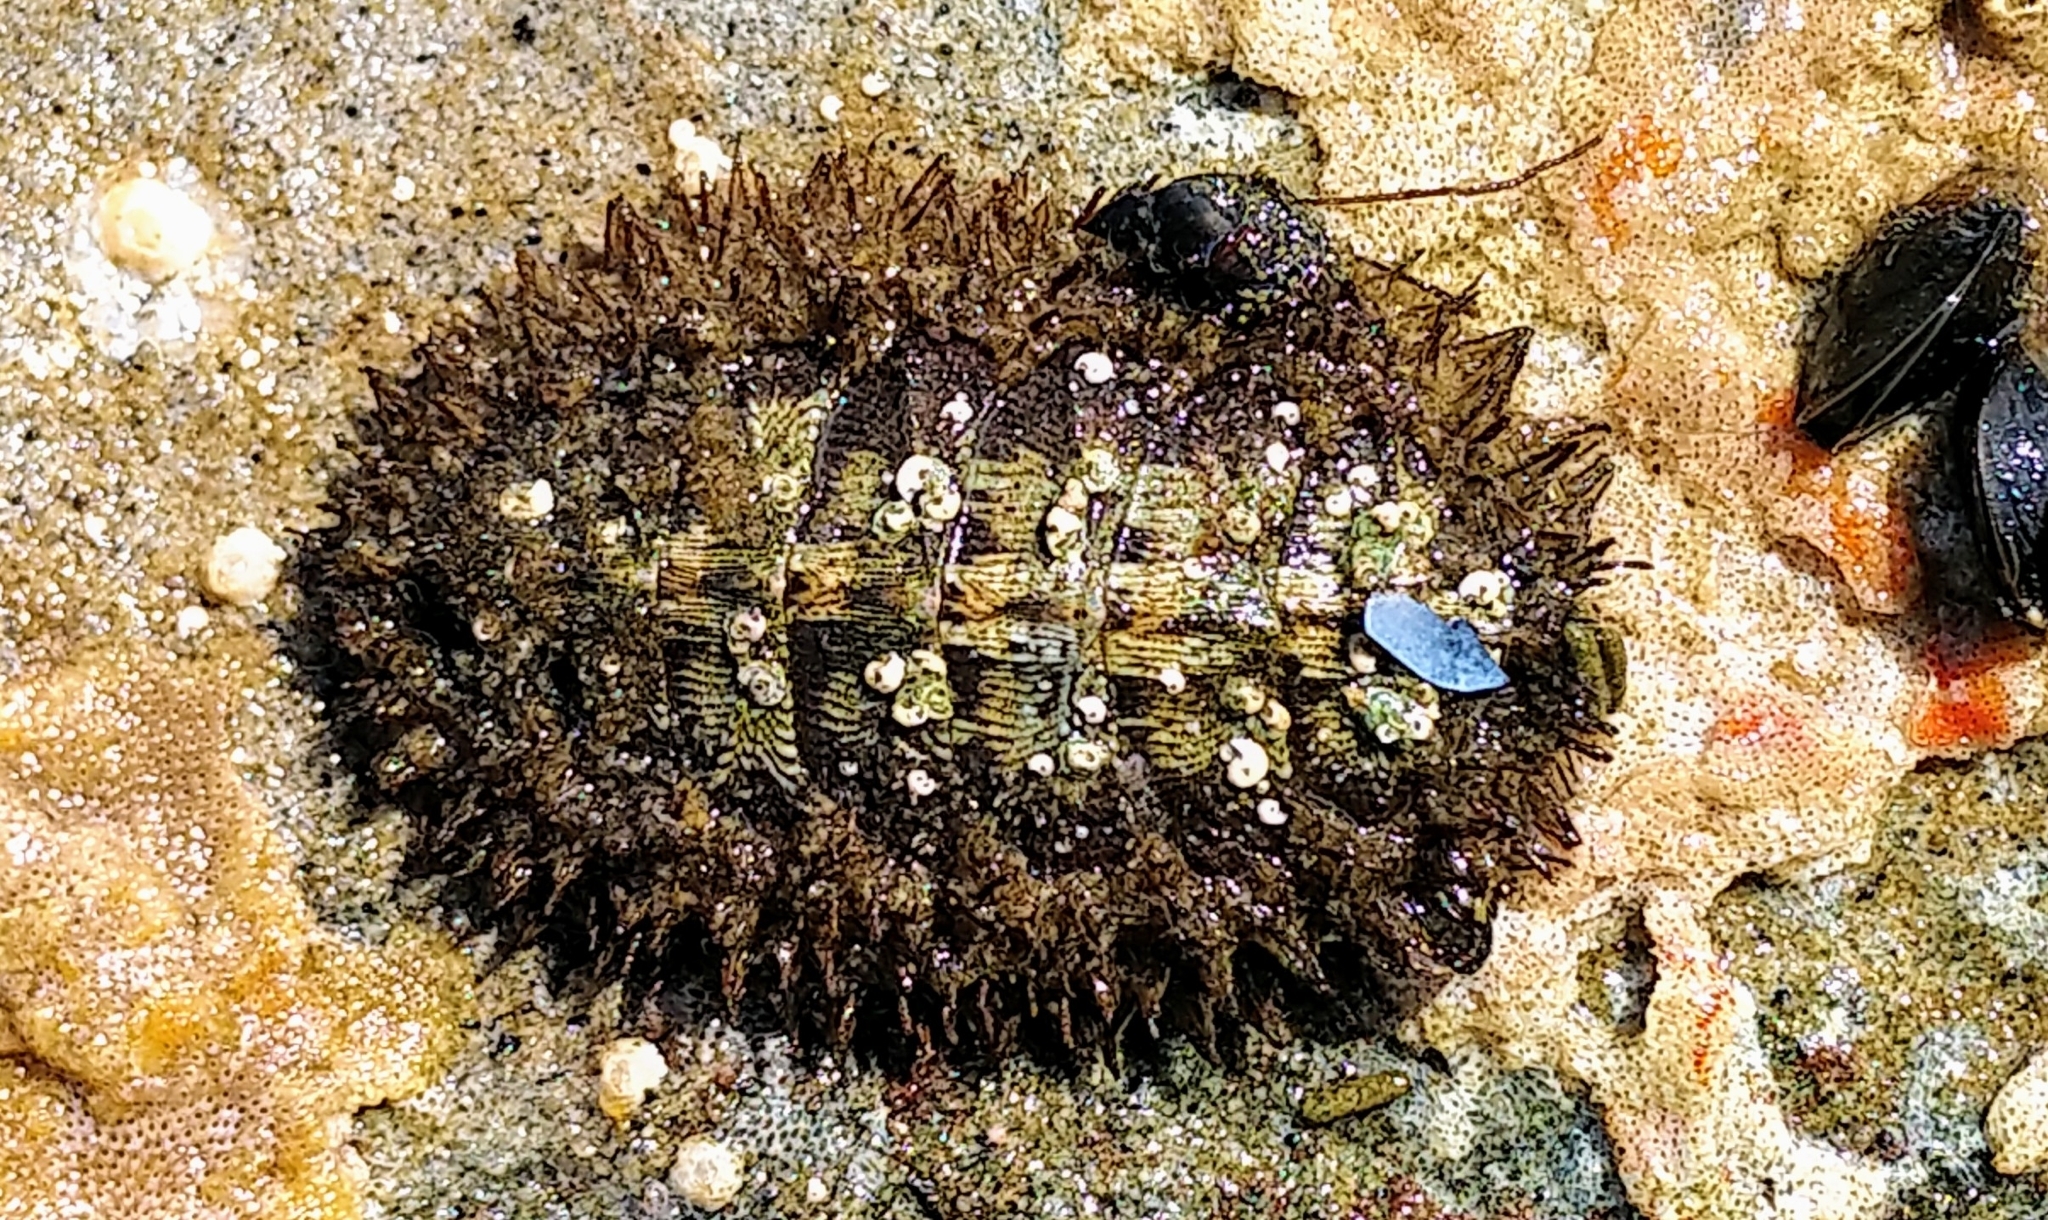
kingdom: Animalia
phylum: Mollusca
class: Polyplacophora
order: Chitonida
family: Mopaliidae
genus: Mopalia
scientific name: Mopalia muscosa
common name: Mossy chiton
